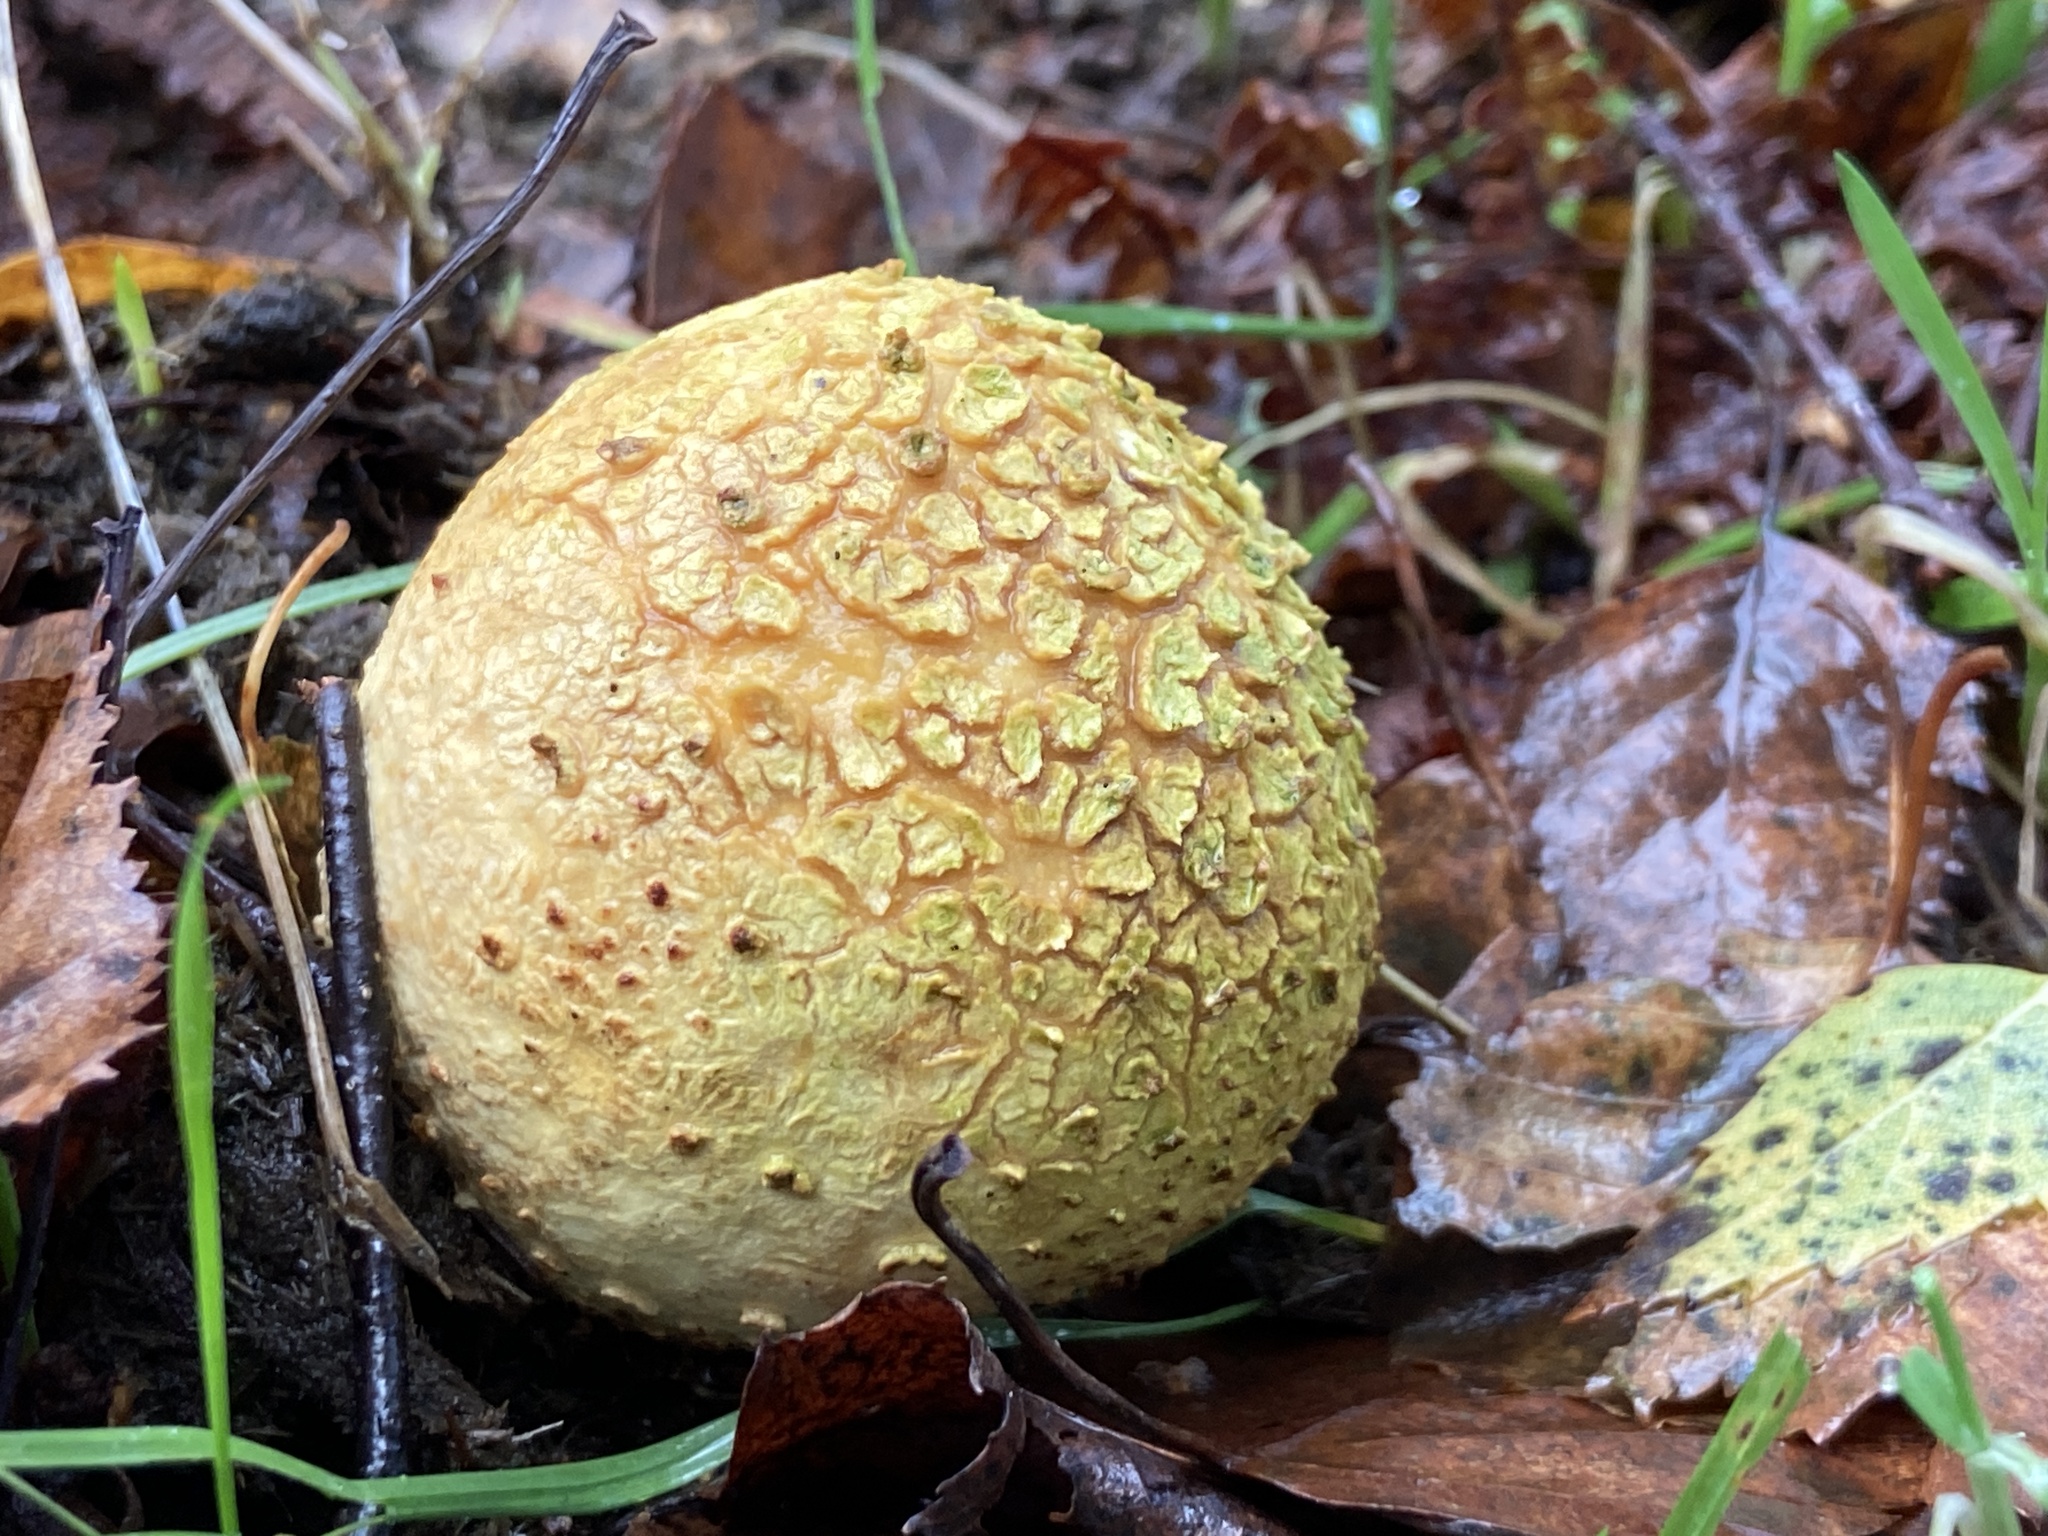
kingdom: Fungi
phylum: Basidiomycota
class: Agaricomycetes
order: Boletales
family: Sclerodermataceae
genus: Scleroderma
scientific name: Scleroderma citrinum
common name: Common earthball
